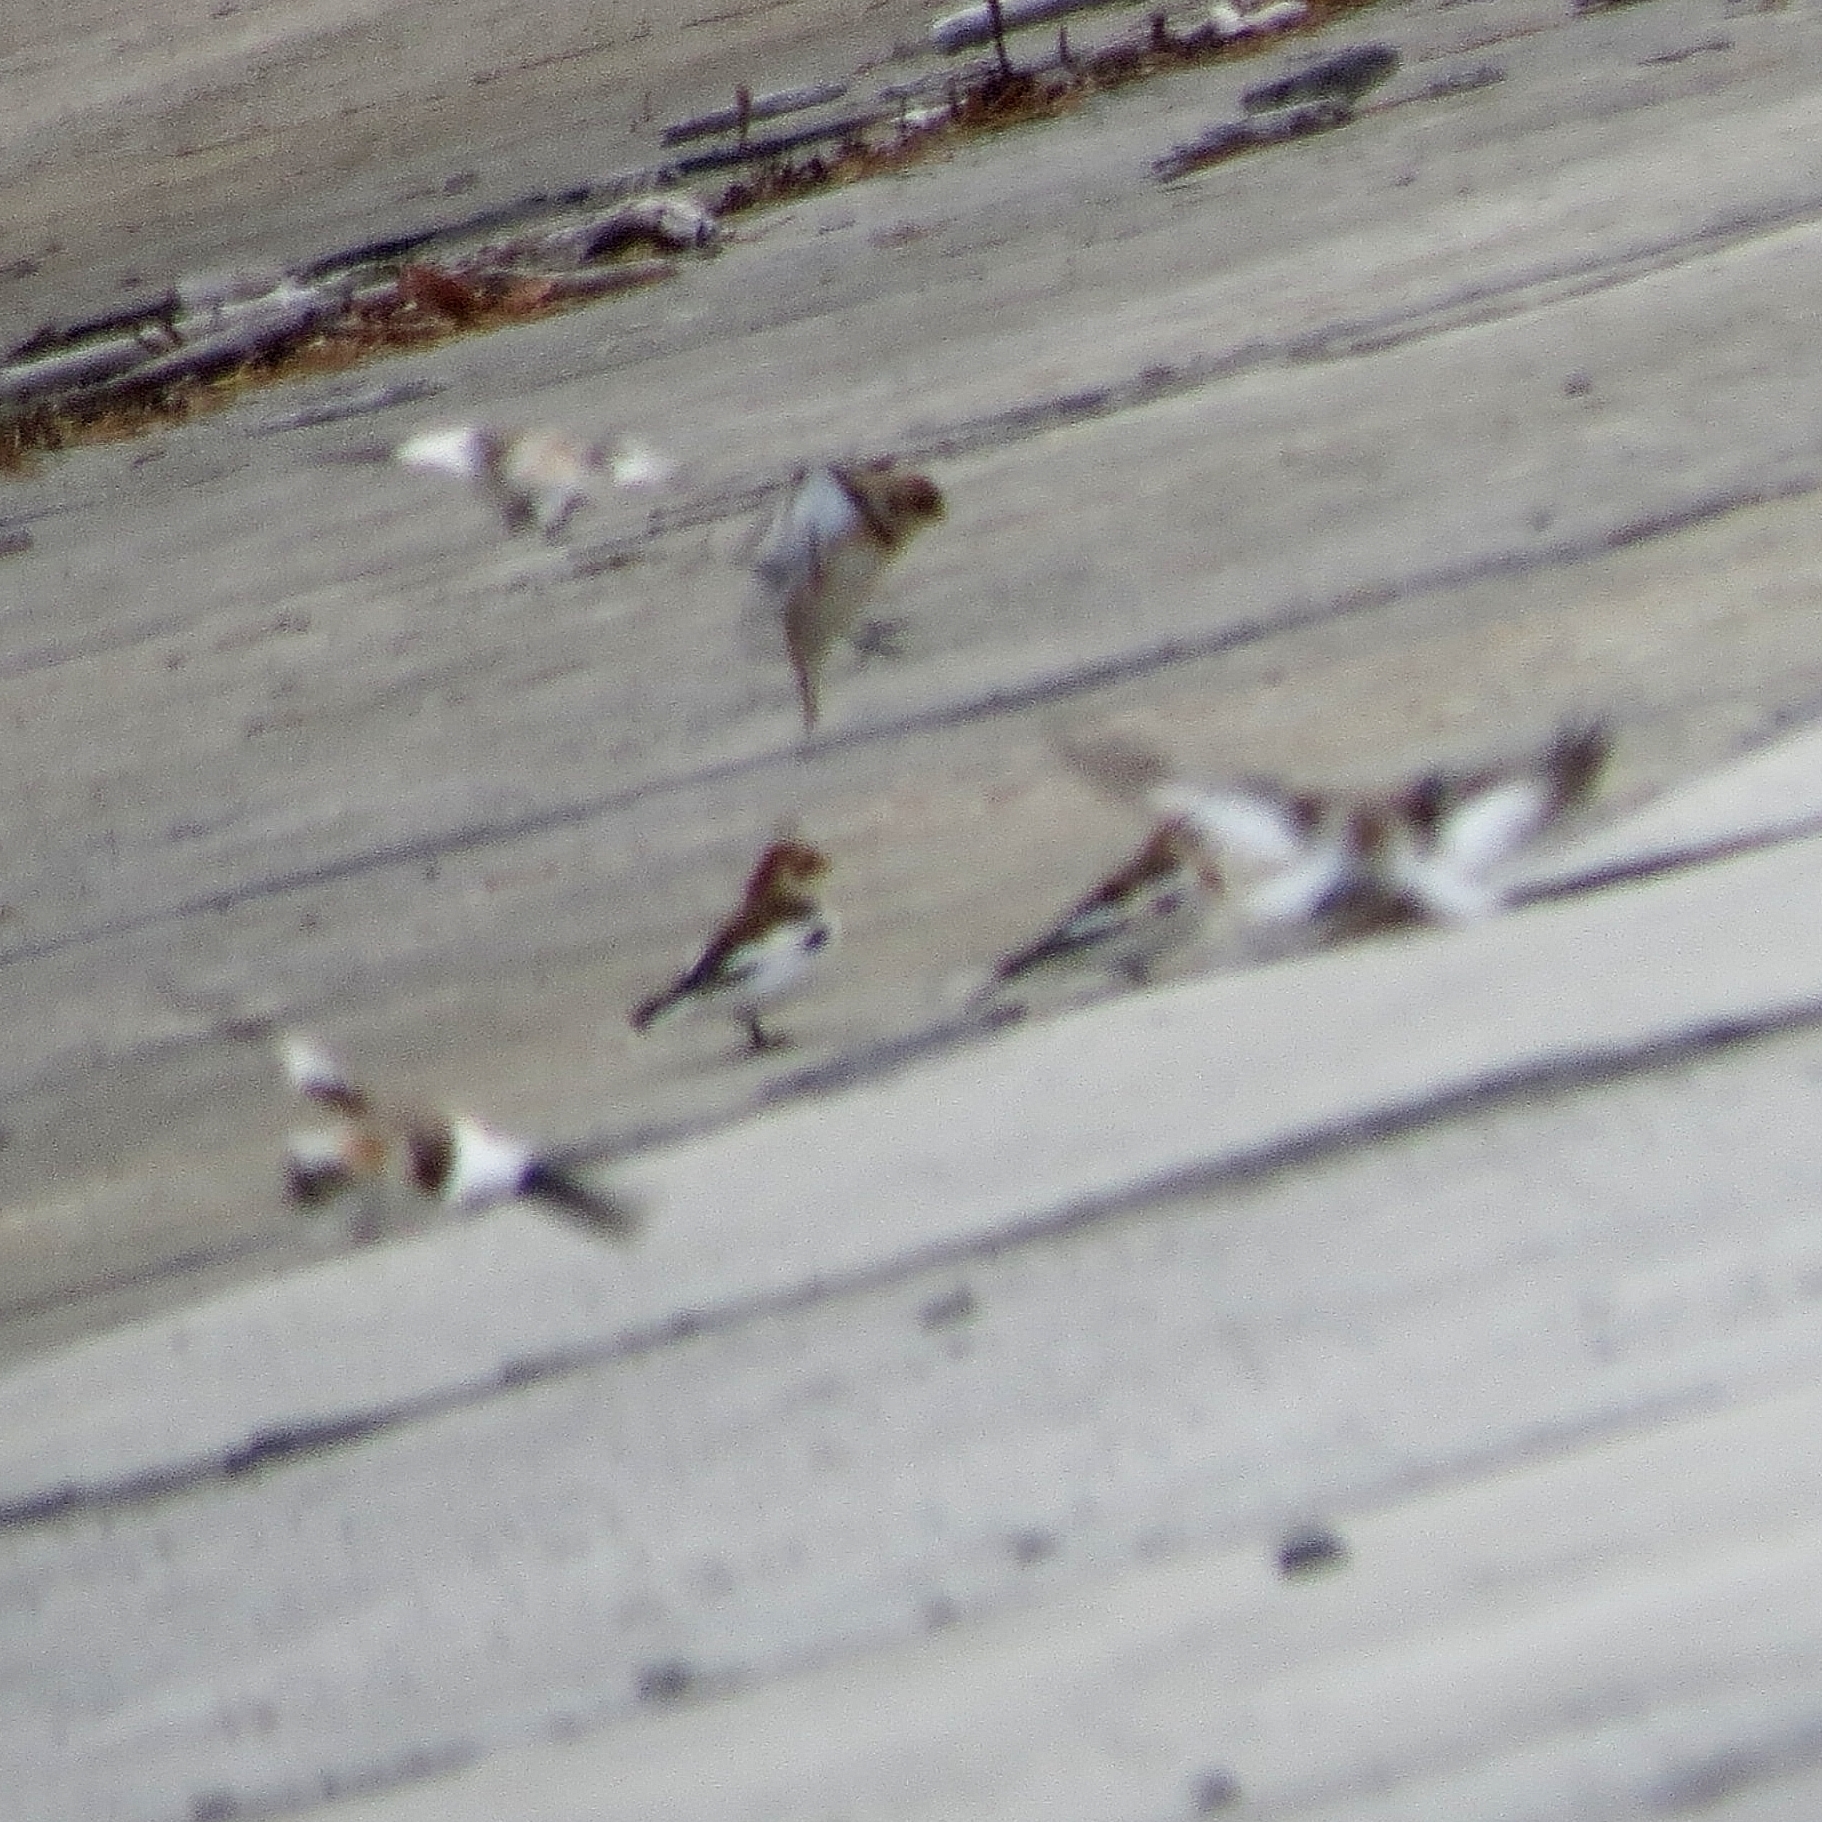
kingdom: Animalia
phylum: Chordata
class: Aves
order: Passeriformes
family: Calcariidae
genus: Plectrophenax
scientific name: Plectrophenax nivalis
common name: Snow bunting
